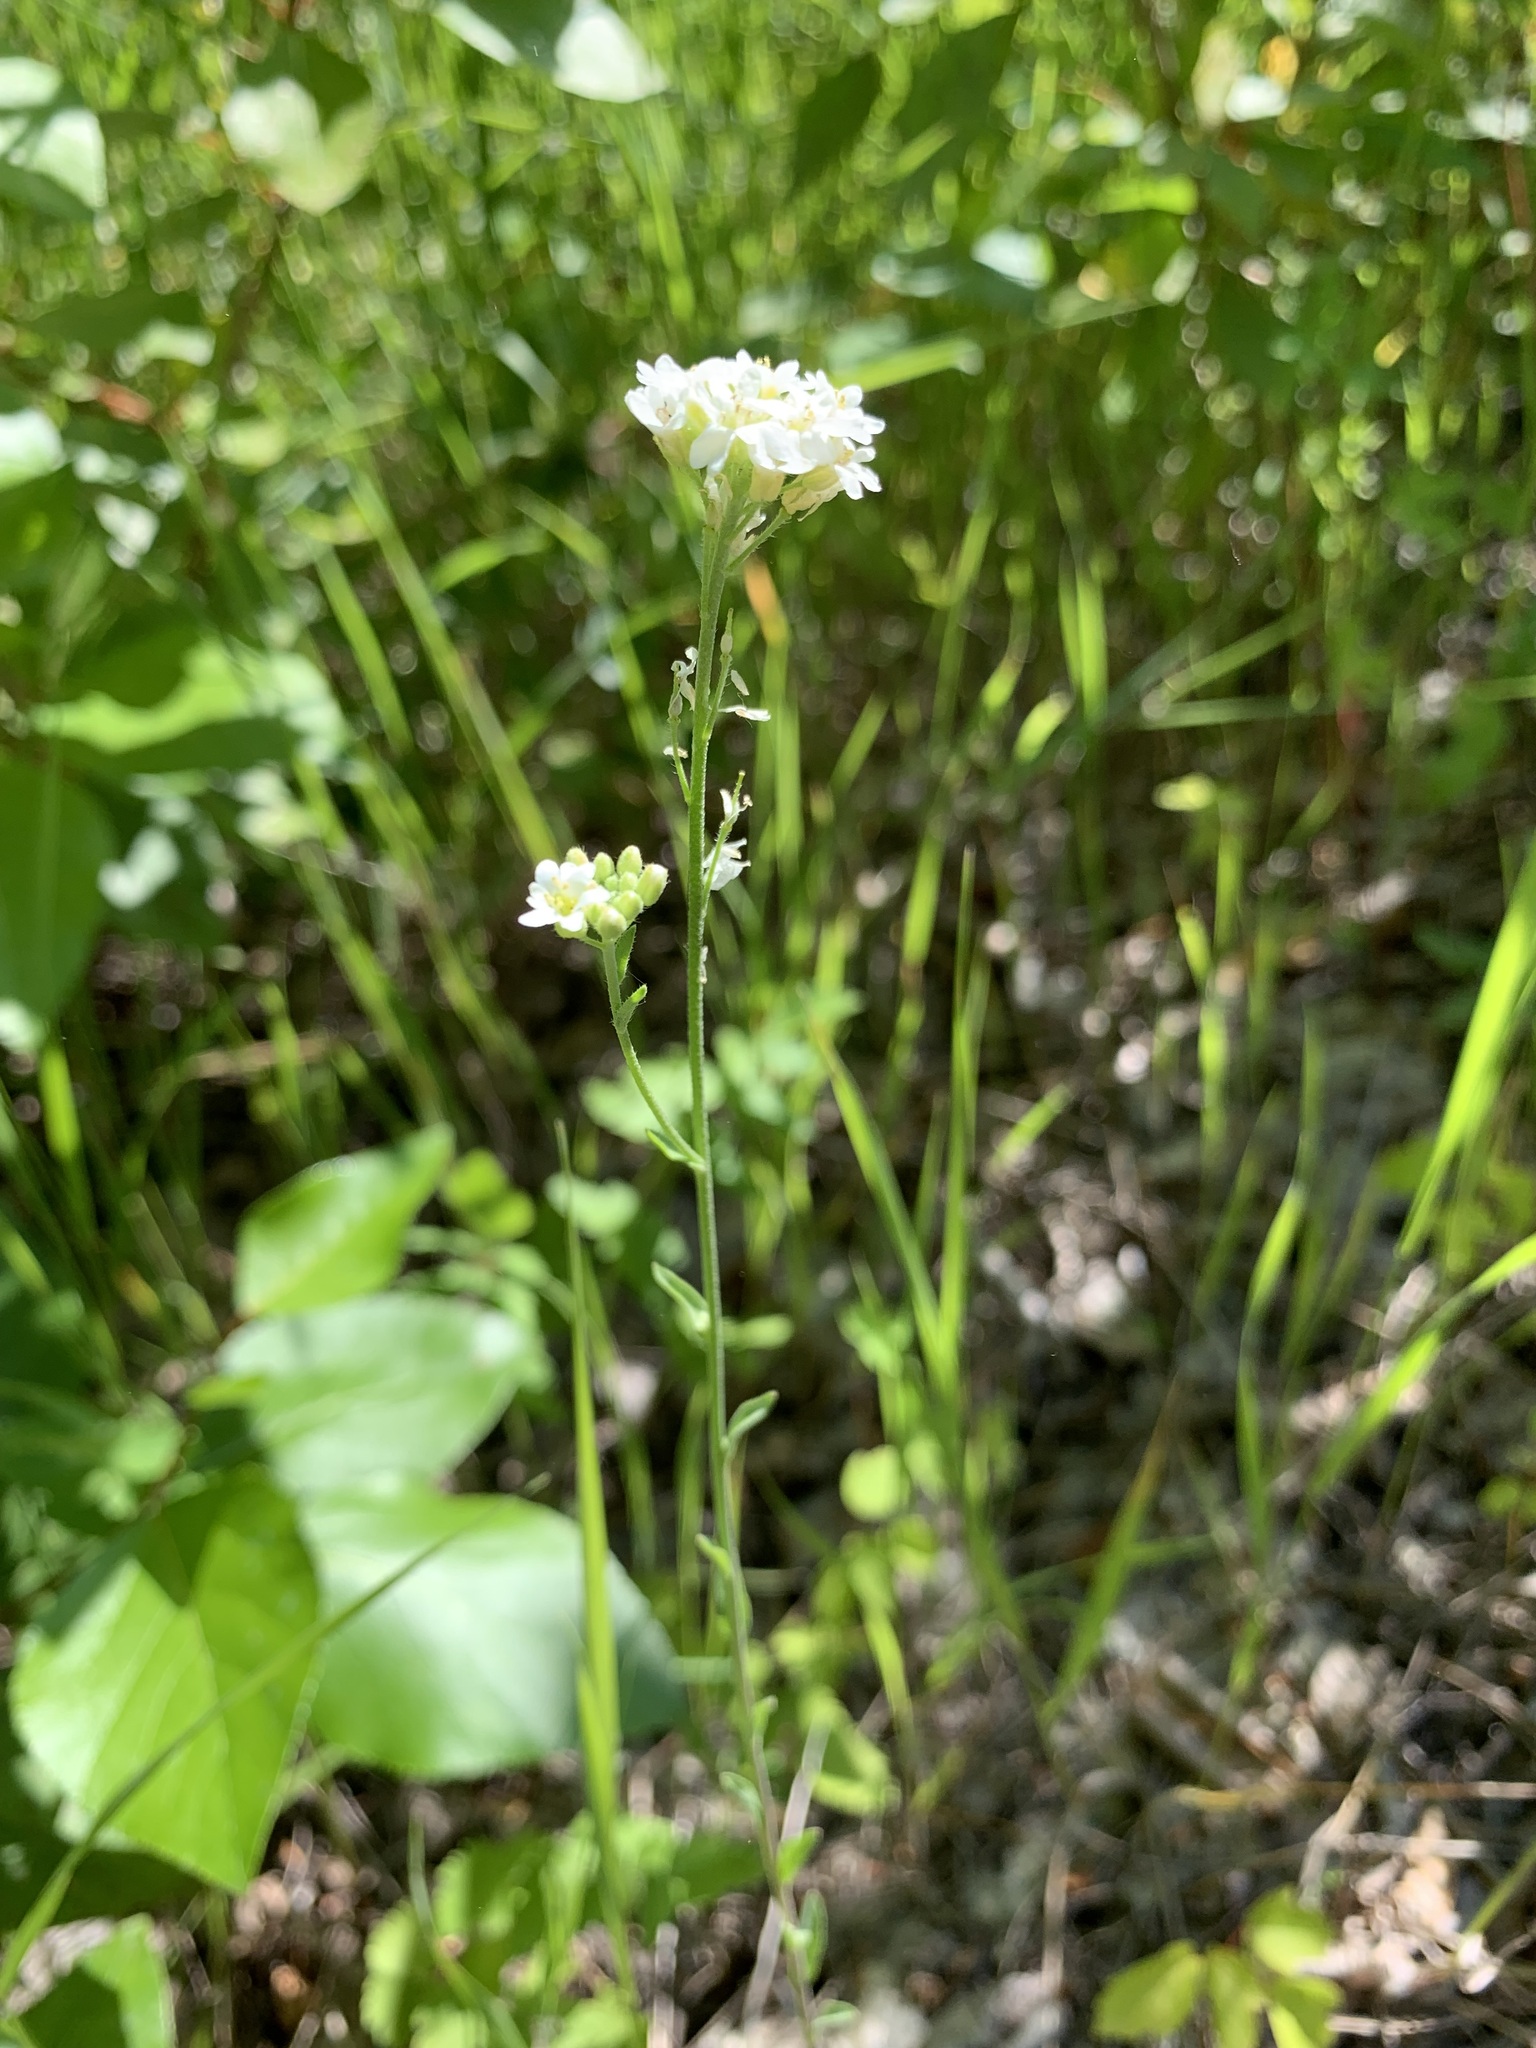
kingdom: Plantae
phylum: Tracheophyta
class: Magnoliopsida
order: Brassicales
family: Brassicaceae
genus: Berteroa
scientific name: Berteroa incana
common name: Hoary alison
